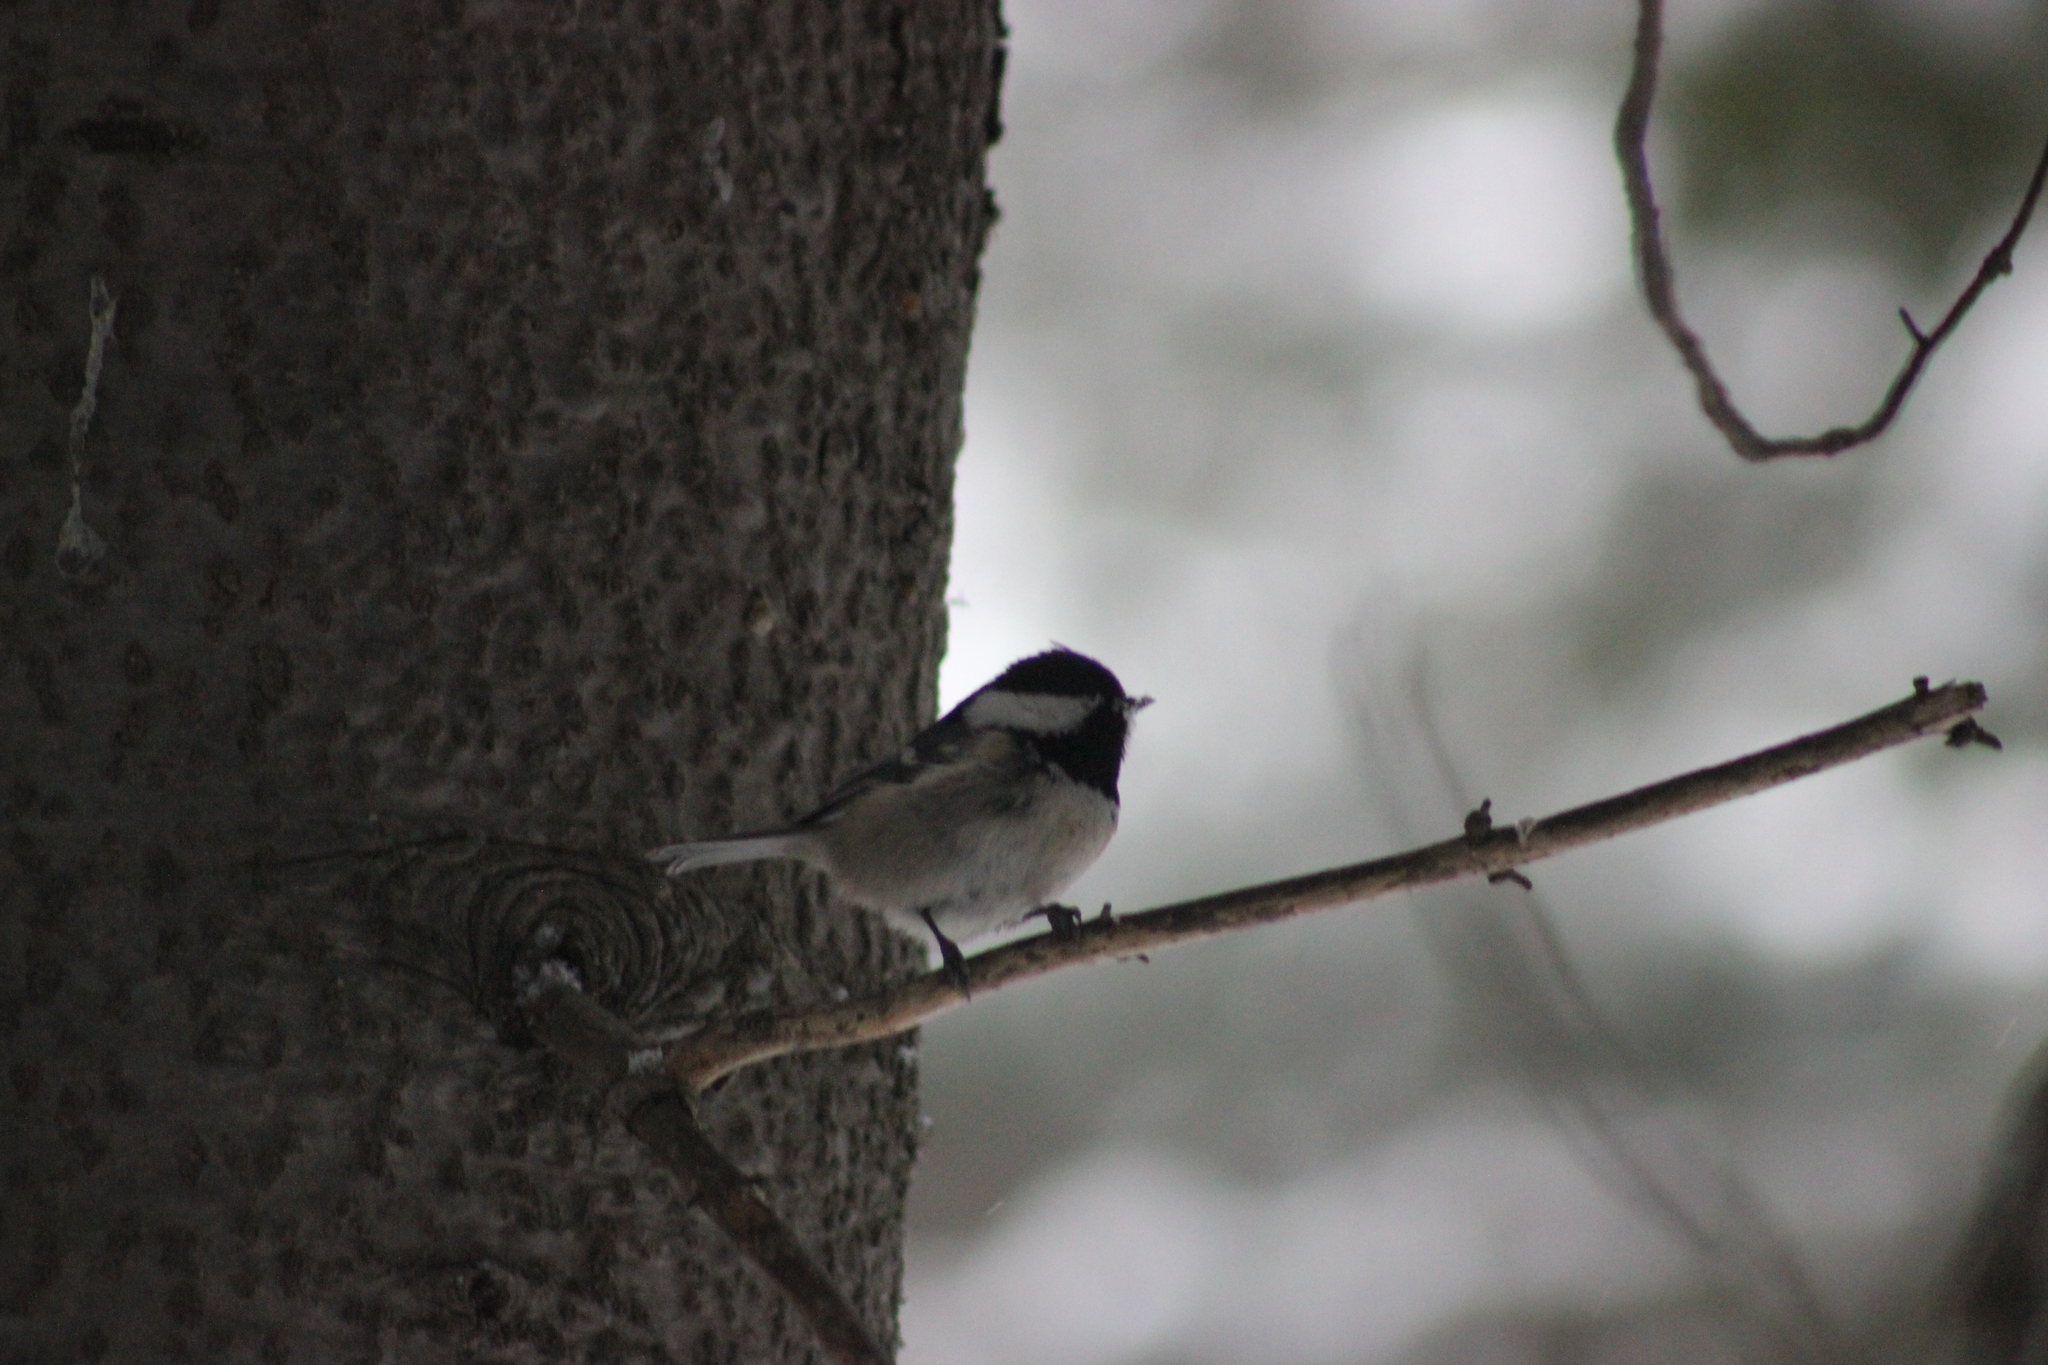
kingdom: Animalia
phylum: Chordata
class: Aves
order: Passeriformes
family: Paridae
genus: Periparus
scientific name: Periparus ater
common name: Coal tit
